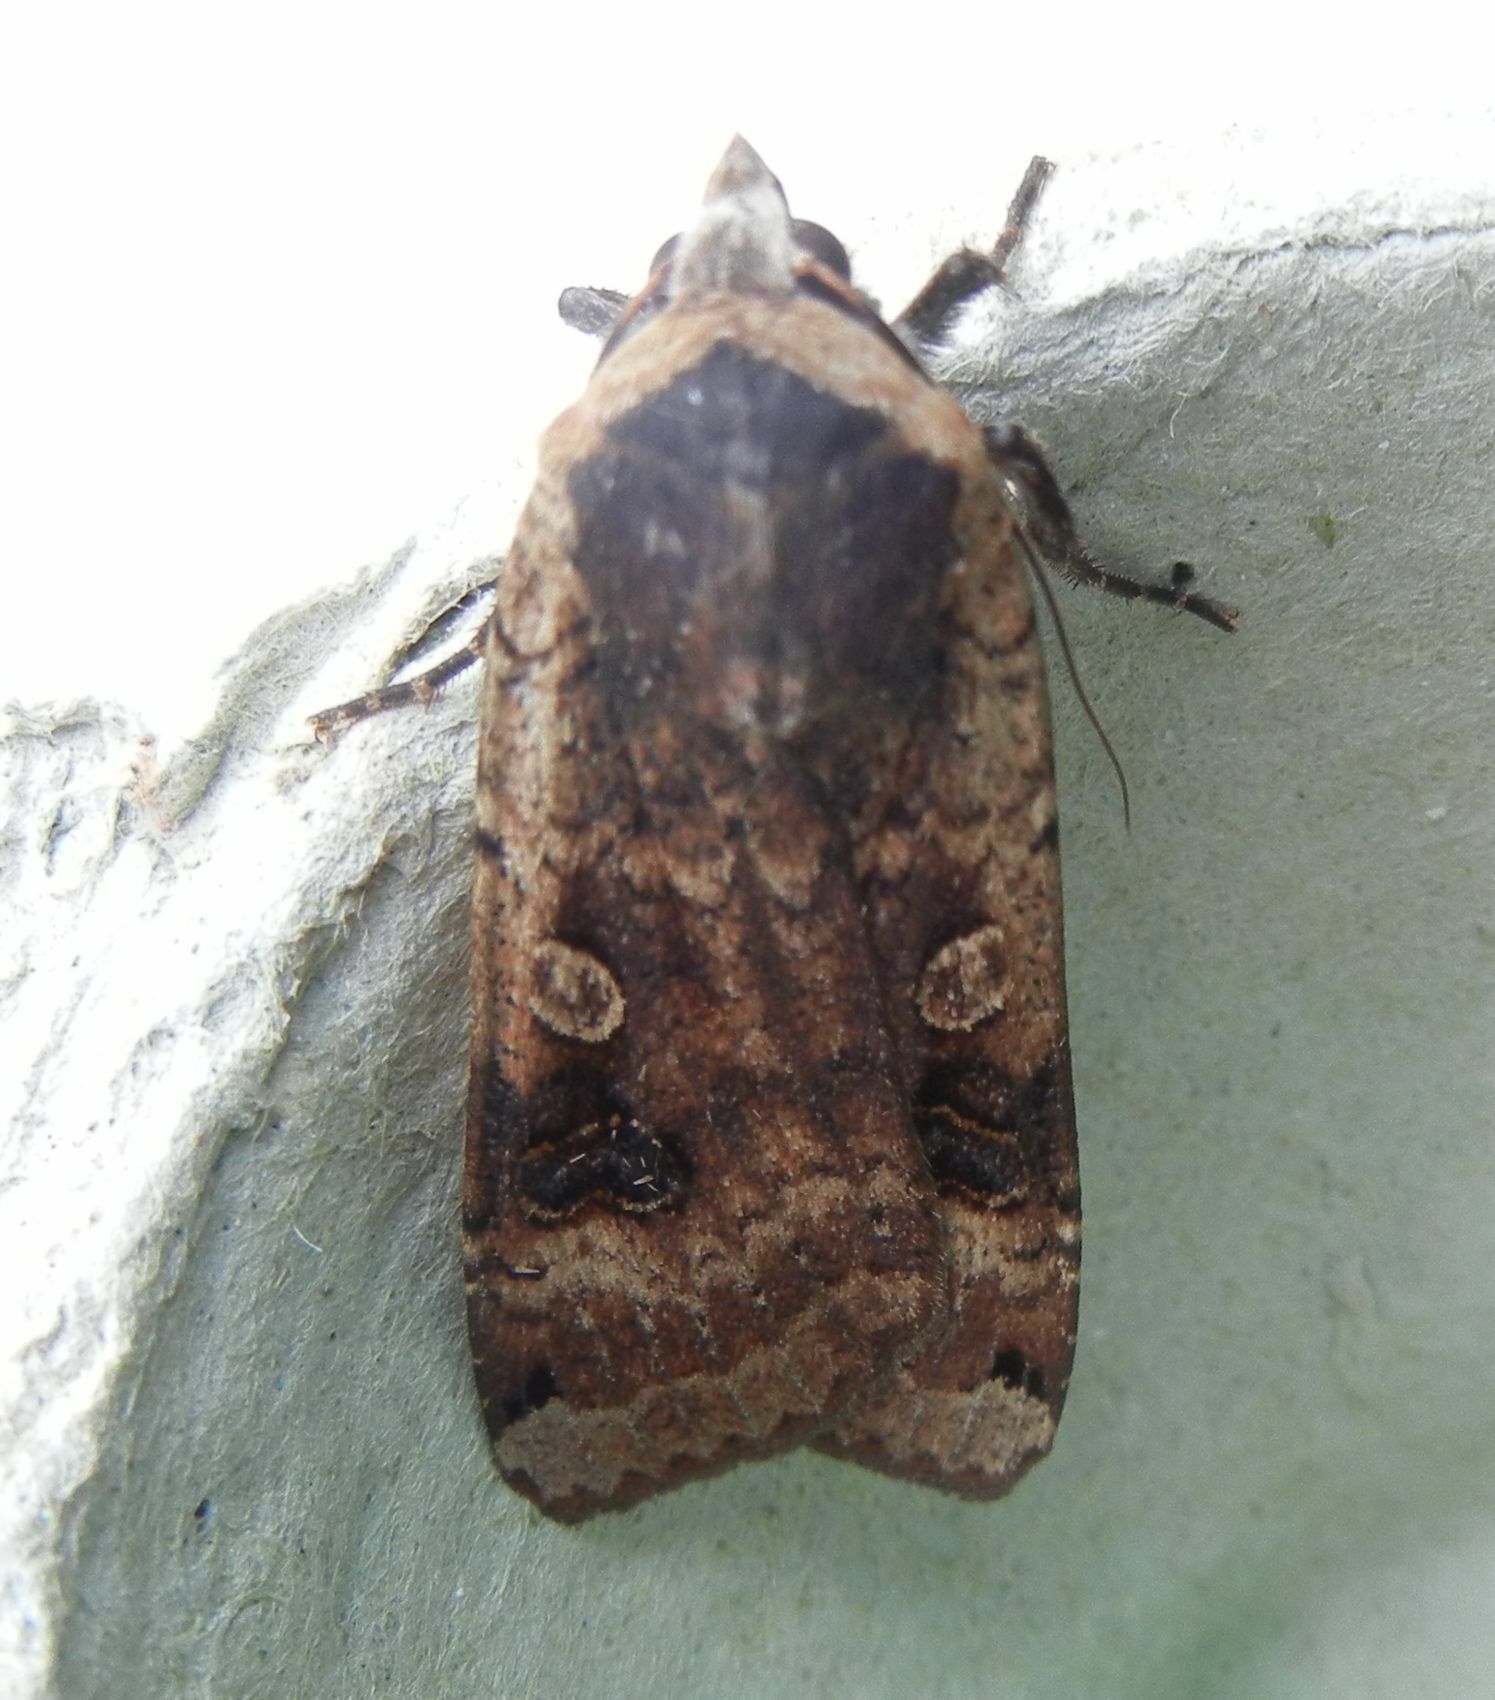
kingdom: Animalia
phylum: Arthropoda
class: Insecta
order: Lepidoptera
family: Noctuidae
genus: Noctua
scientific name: Noctua pronuba
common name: Large yellow underwing
